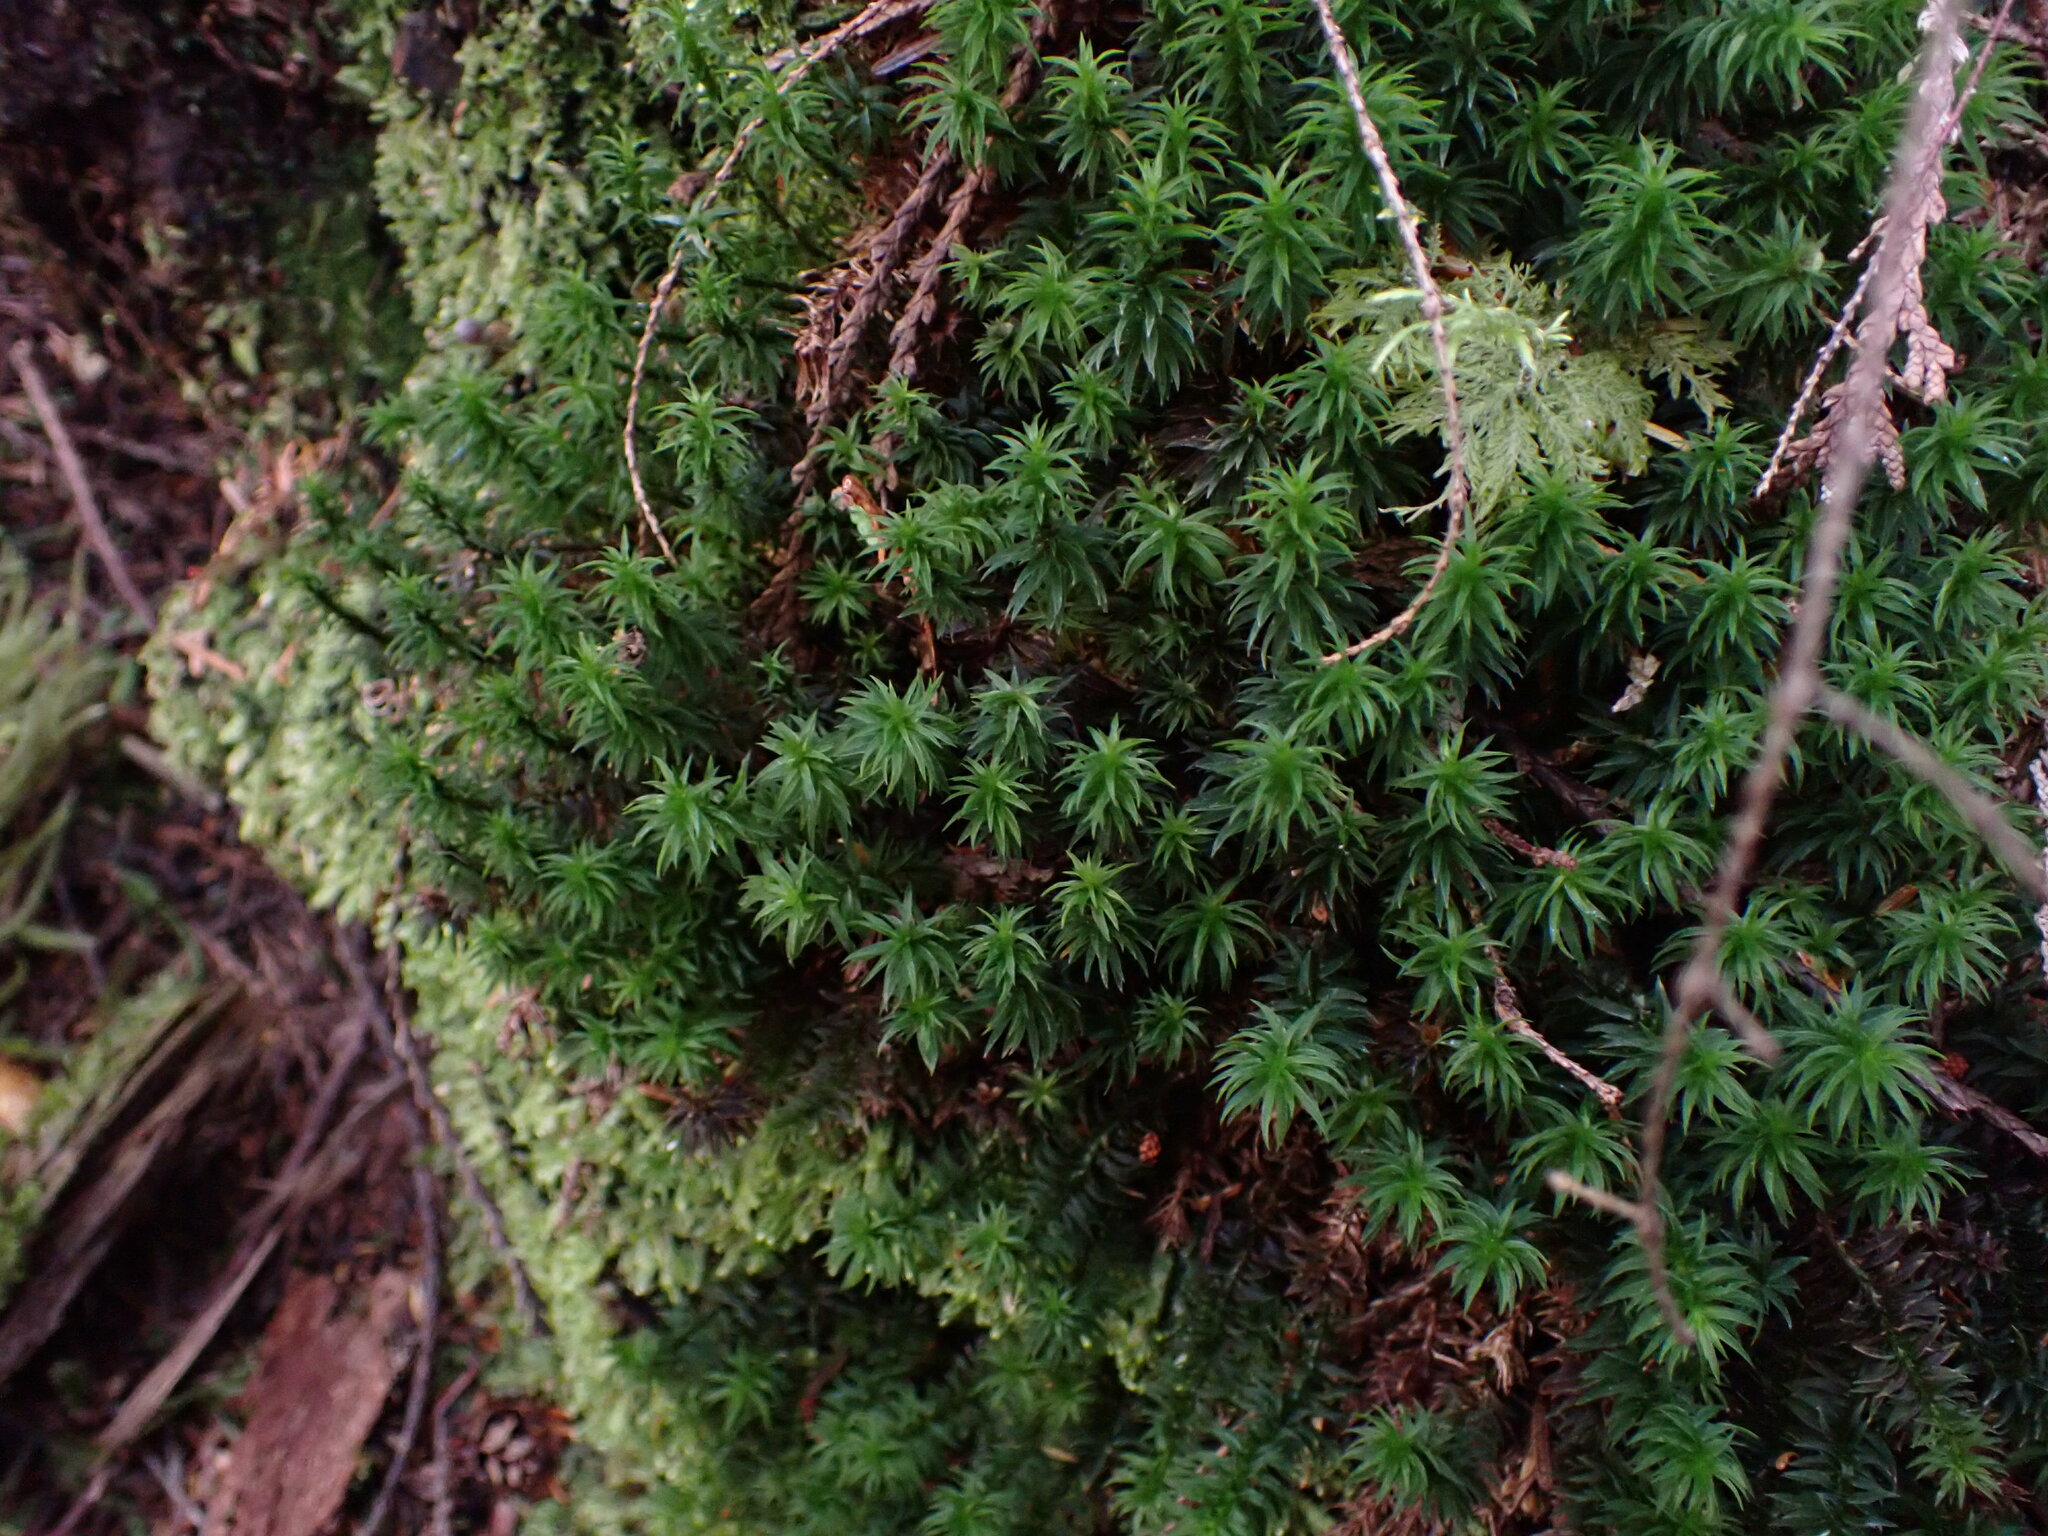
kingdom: Plantae
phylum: Bryophyta
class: Polytrichopsida
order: Polytrichales
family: Polytrichaceae
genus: Pogonatum
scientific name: Pogonatum contortum
